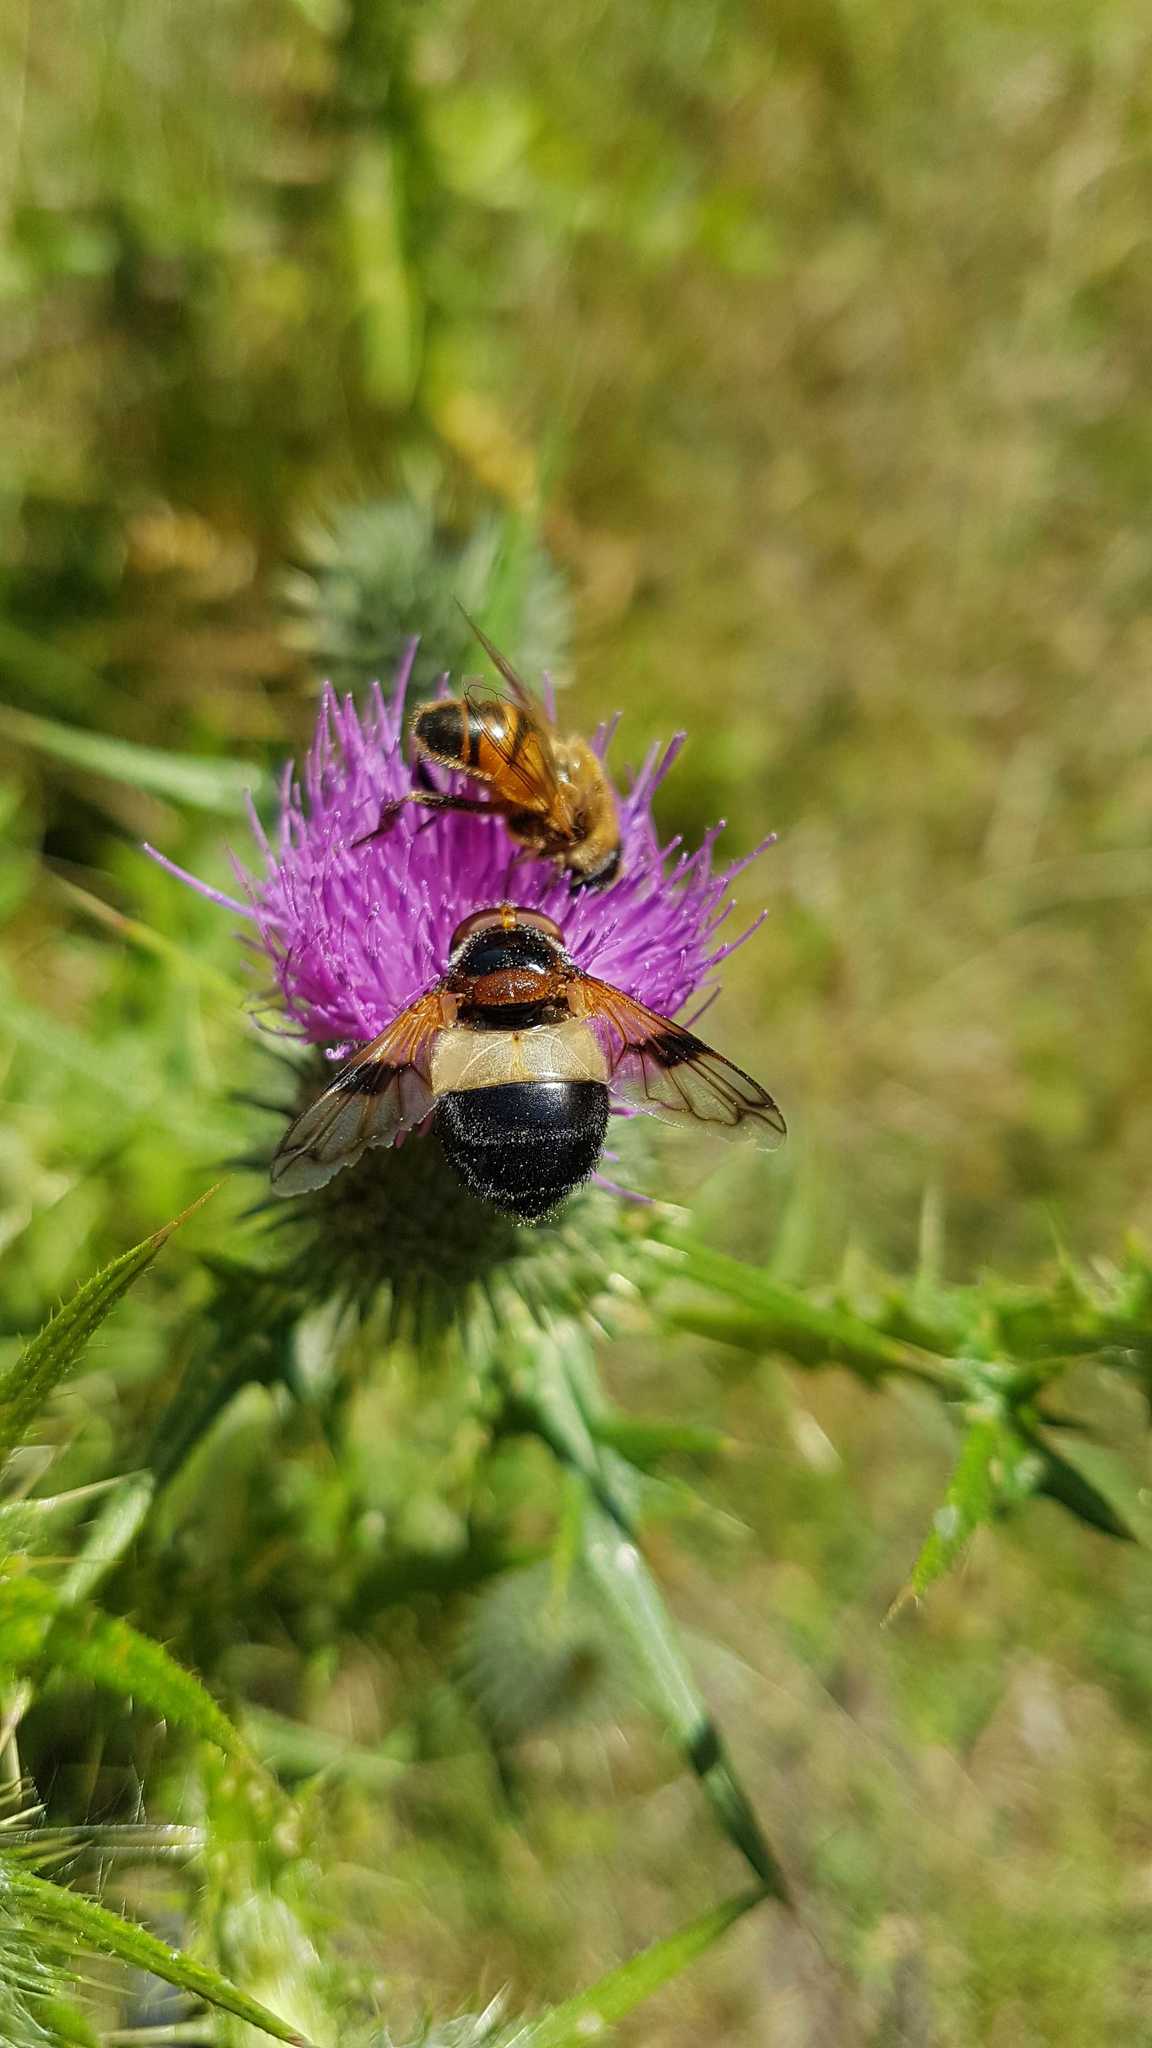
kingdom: Animalia
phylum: Arthropoda
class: Insecta
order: Diptera
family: Syrphidae
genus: Volucella
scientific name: Volucella pellucens
